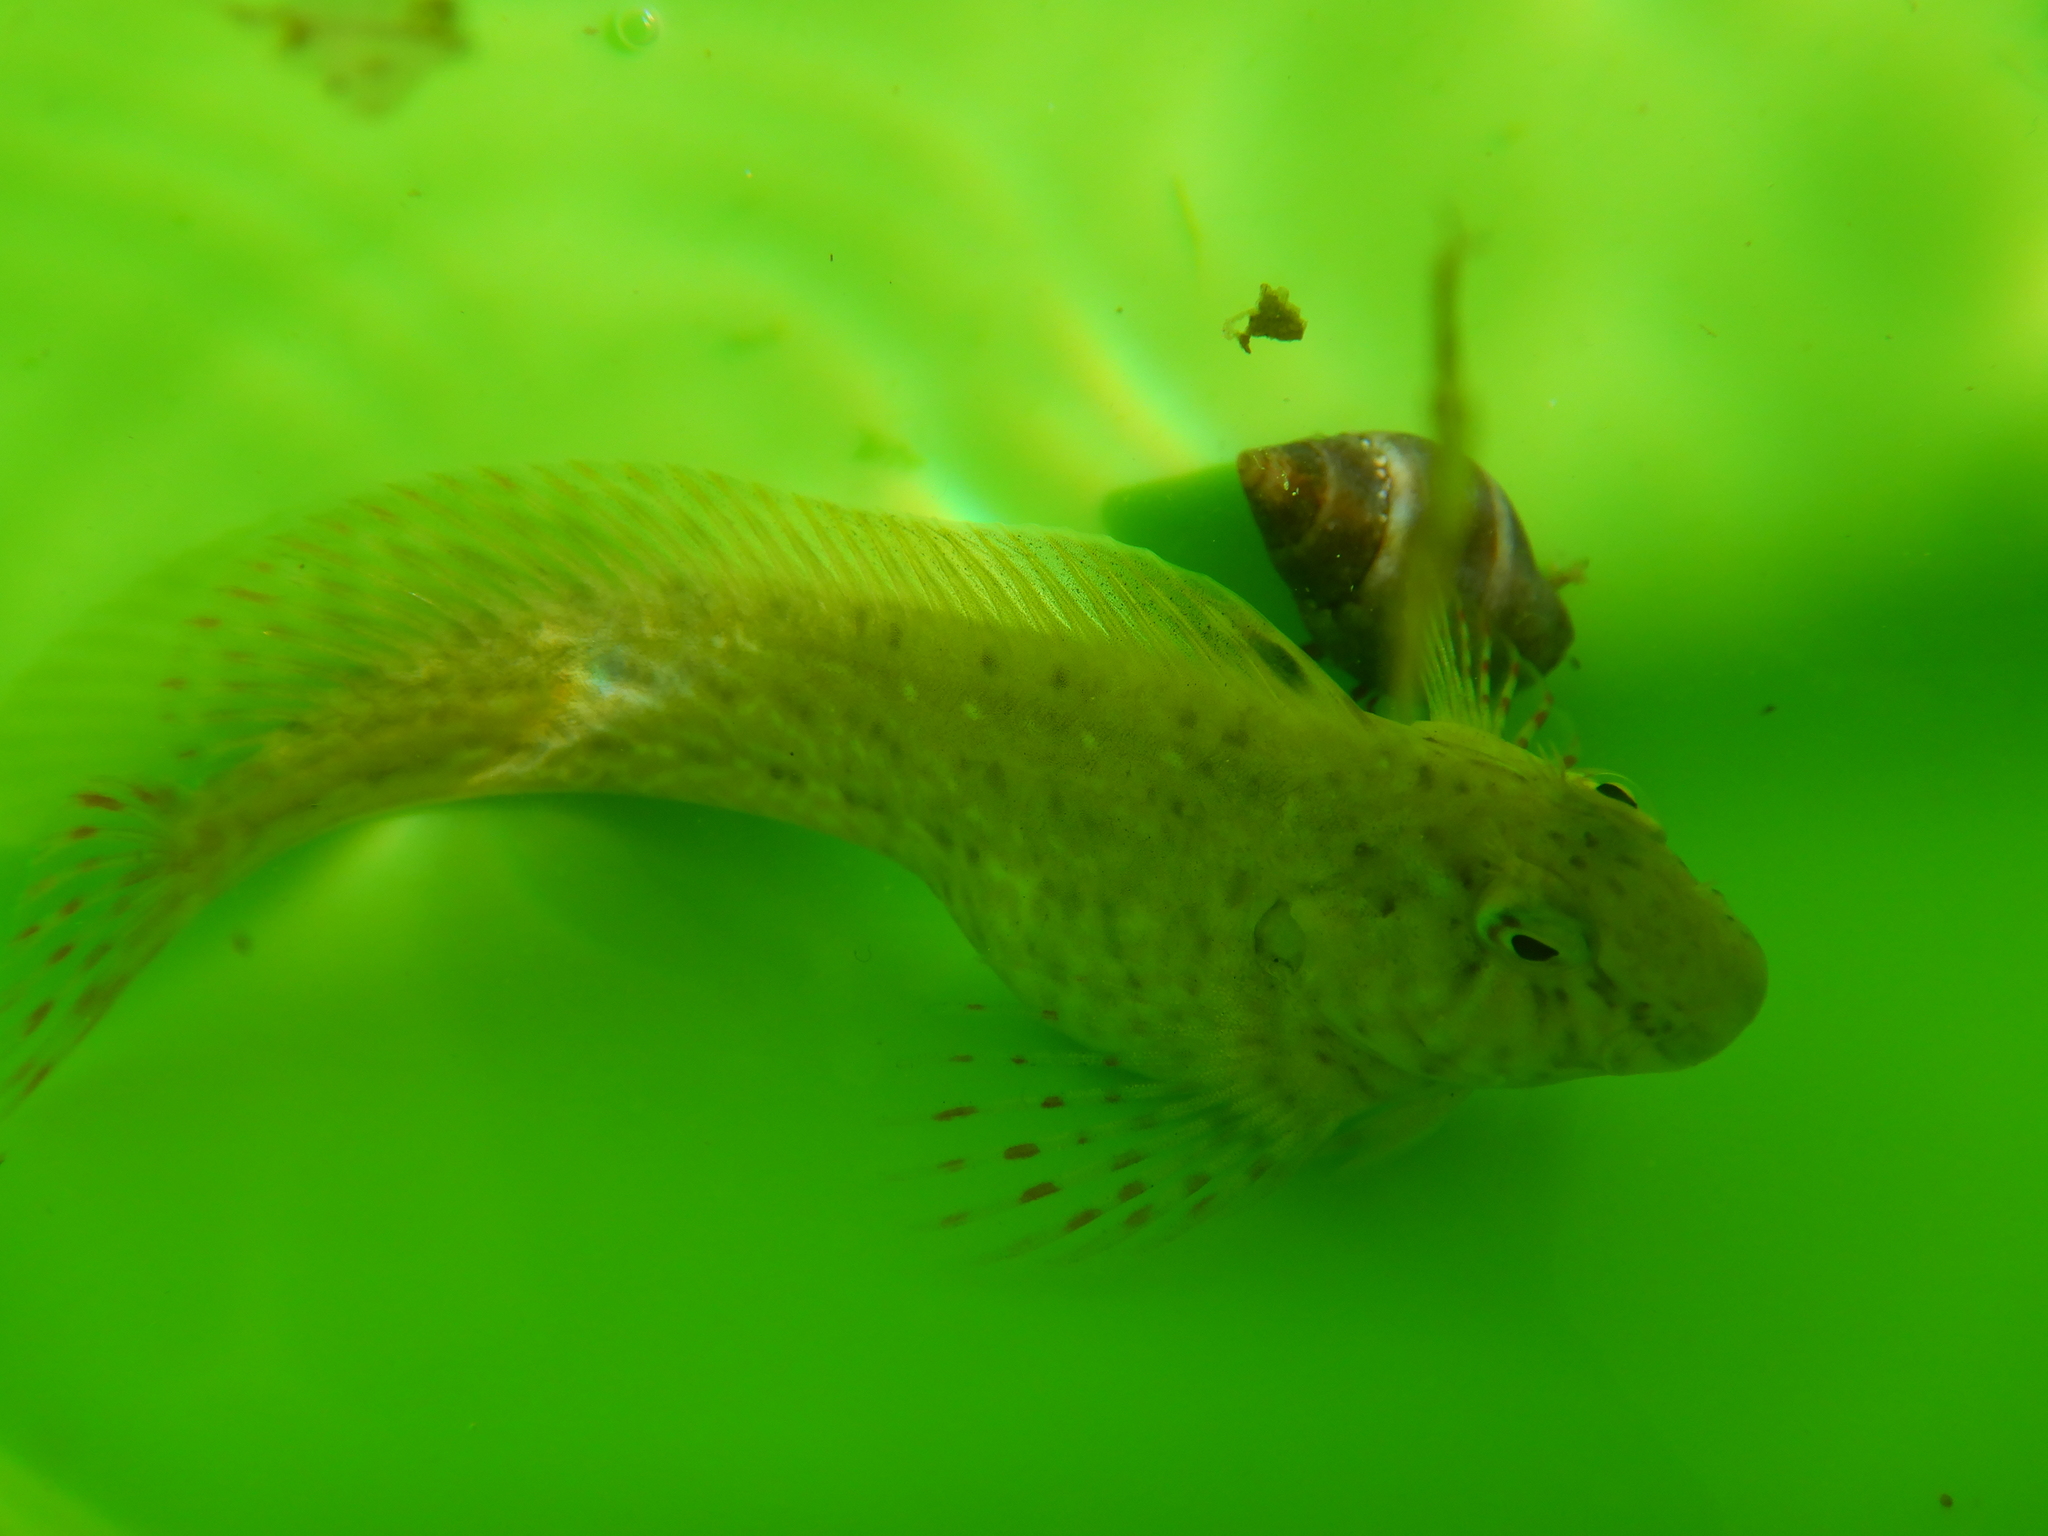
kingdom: Animalia
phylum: Chordata
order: Perciformes
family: Blenniidae
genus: Parablennius
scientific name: Parablennius sanguinolentus
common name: Black sea blenny
